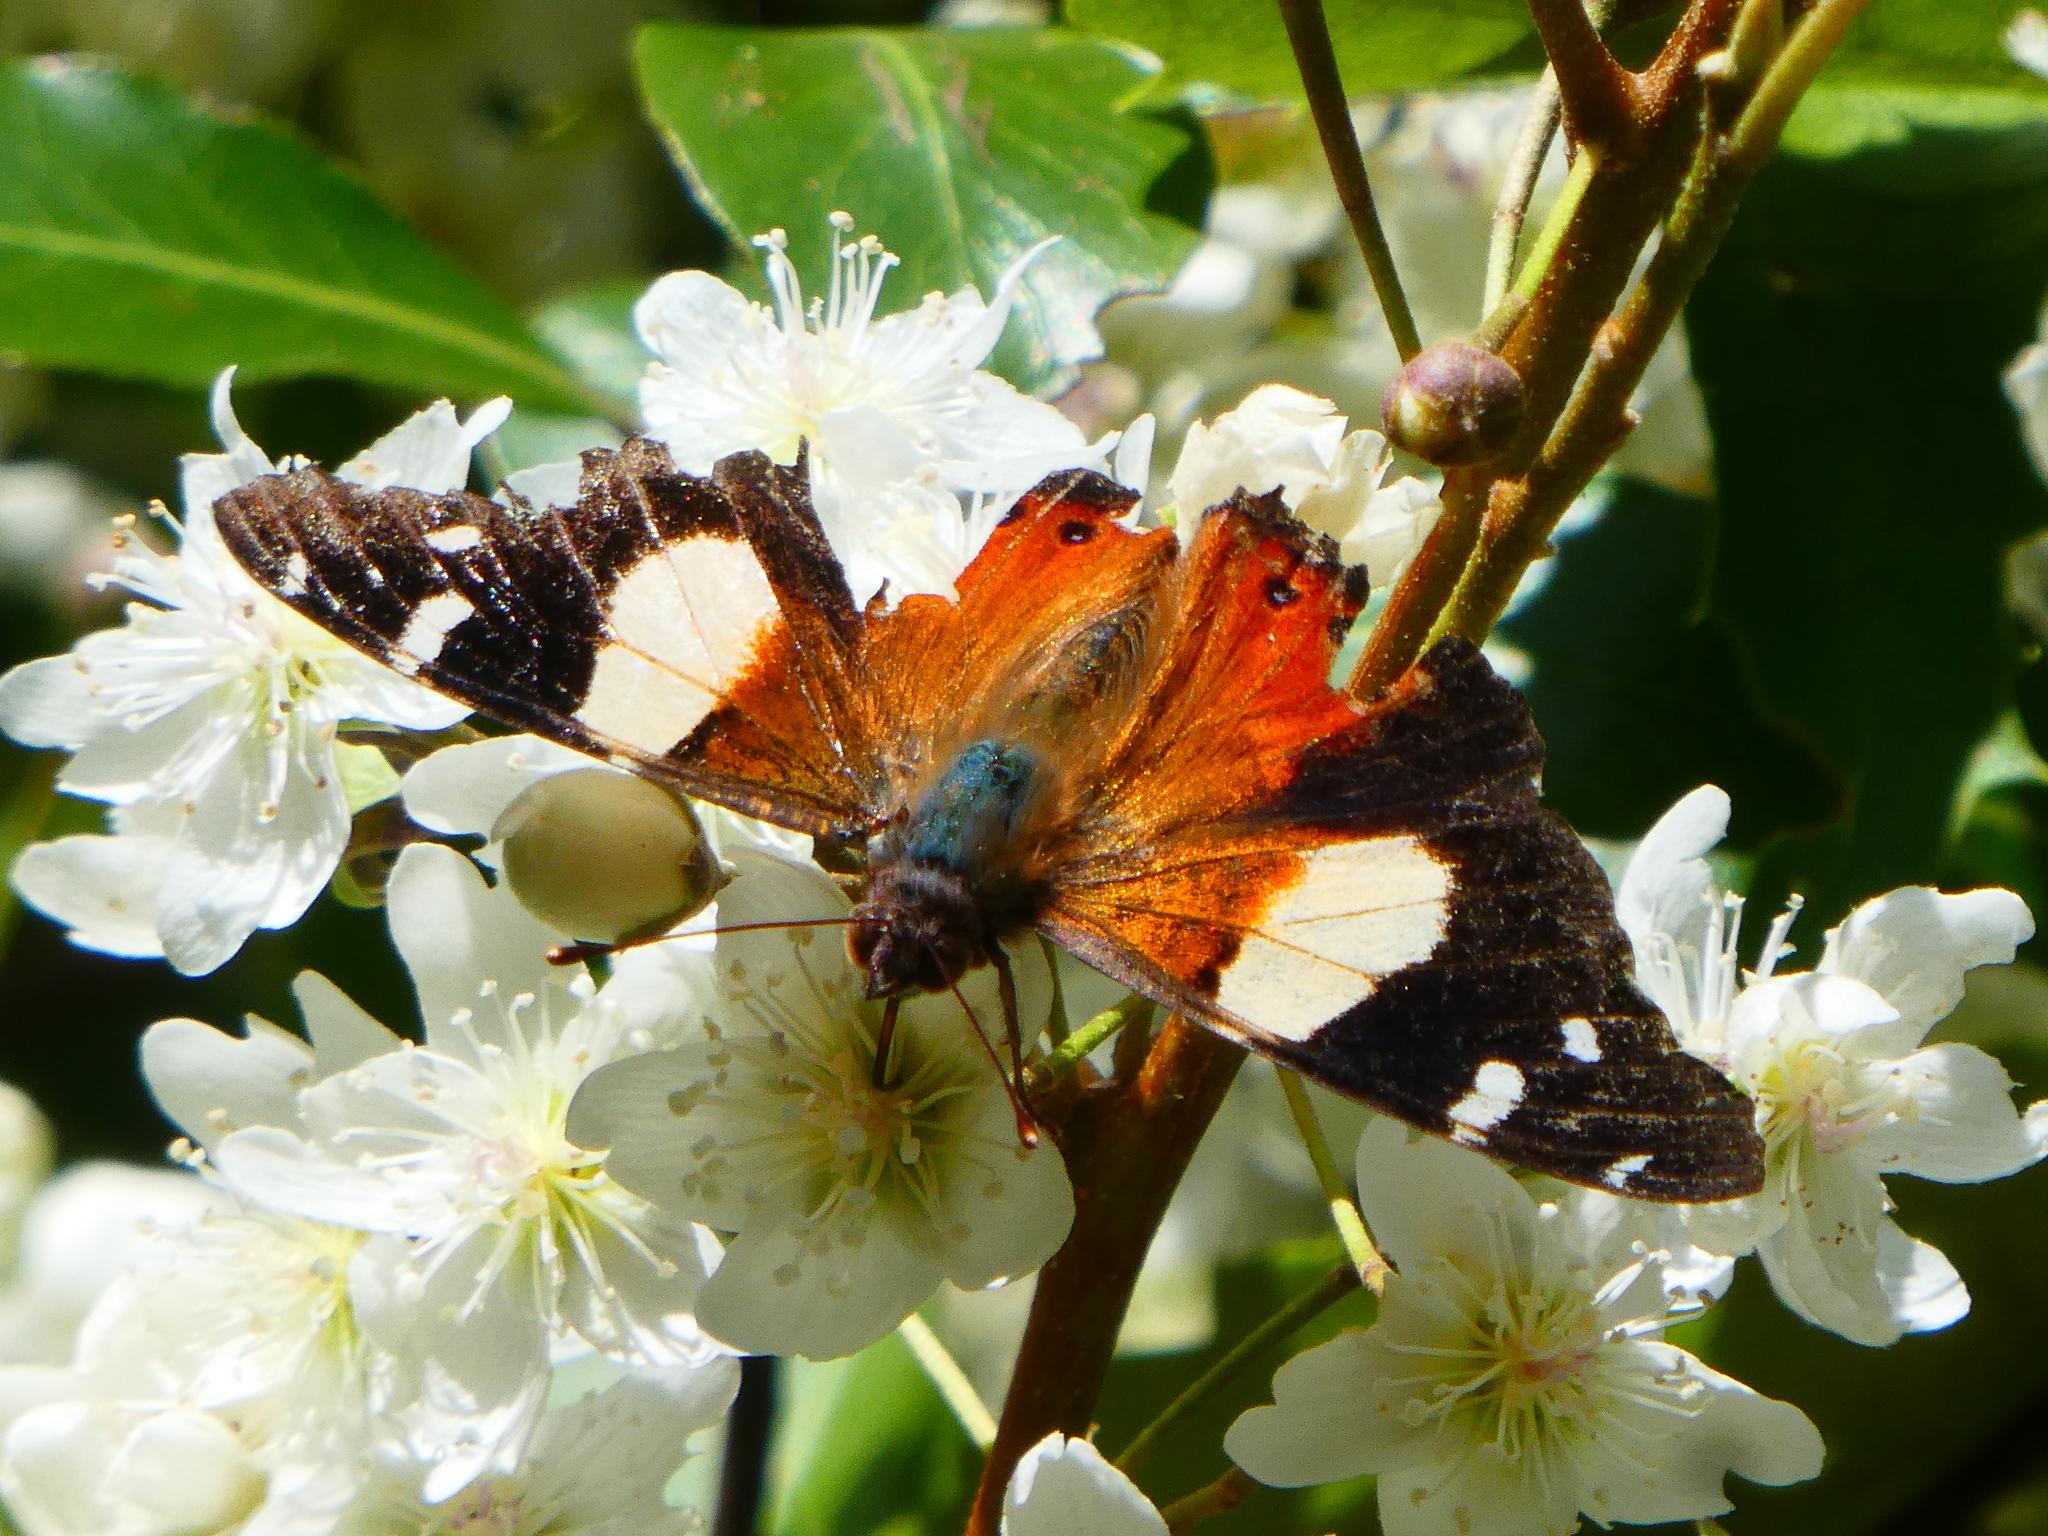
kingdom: Animalia
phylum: Arthropoda
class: Insecta
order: Lepidoptera
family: Nymphalidae
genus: Vanessa
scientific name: Vanessa itea
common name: Yellow admiral
